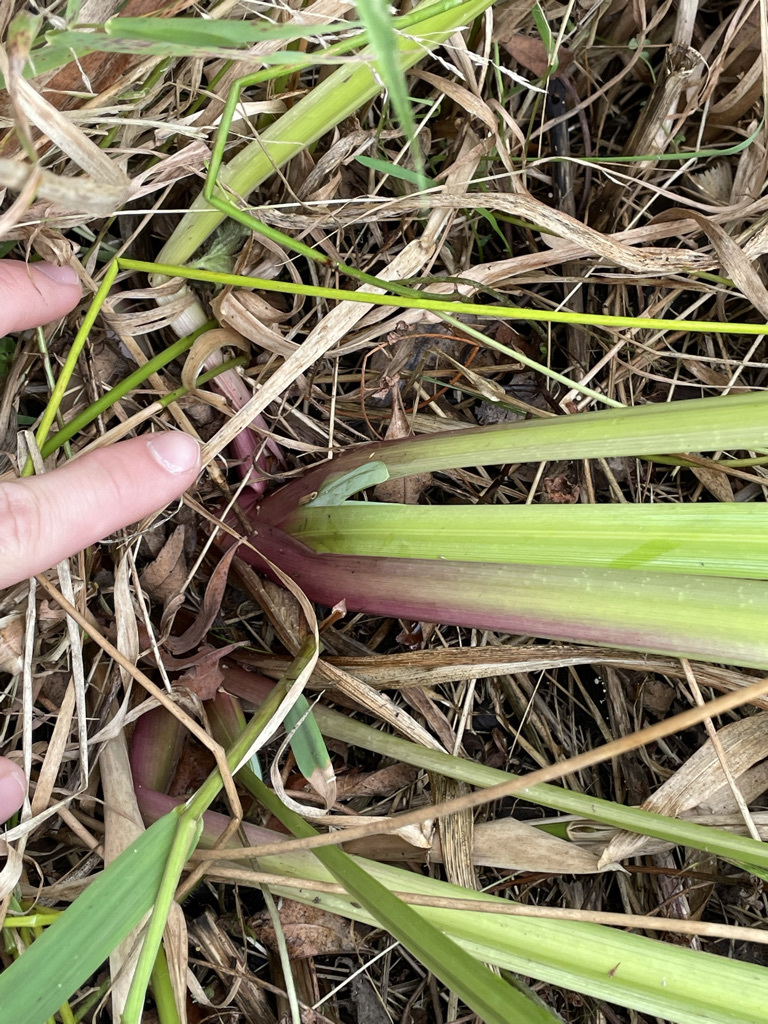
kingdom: Plantae
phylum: Tracheophyta
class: Liliopsida
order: Asparagales
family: Iridaceae
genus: Iris
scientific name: Iris pseudacorus
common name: Yellow flag
